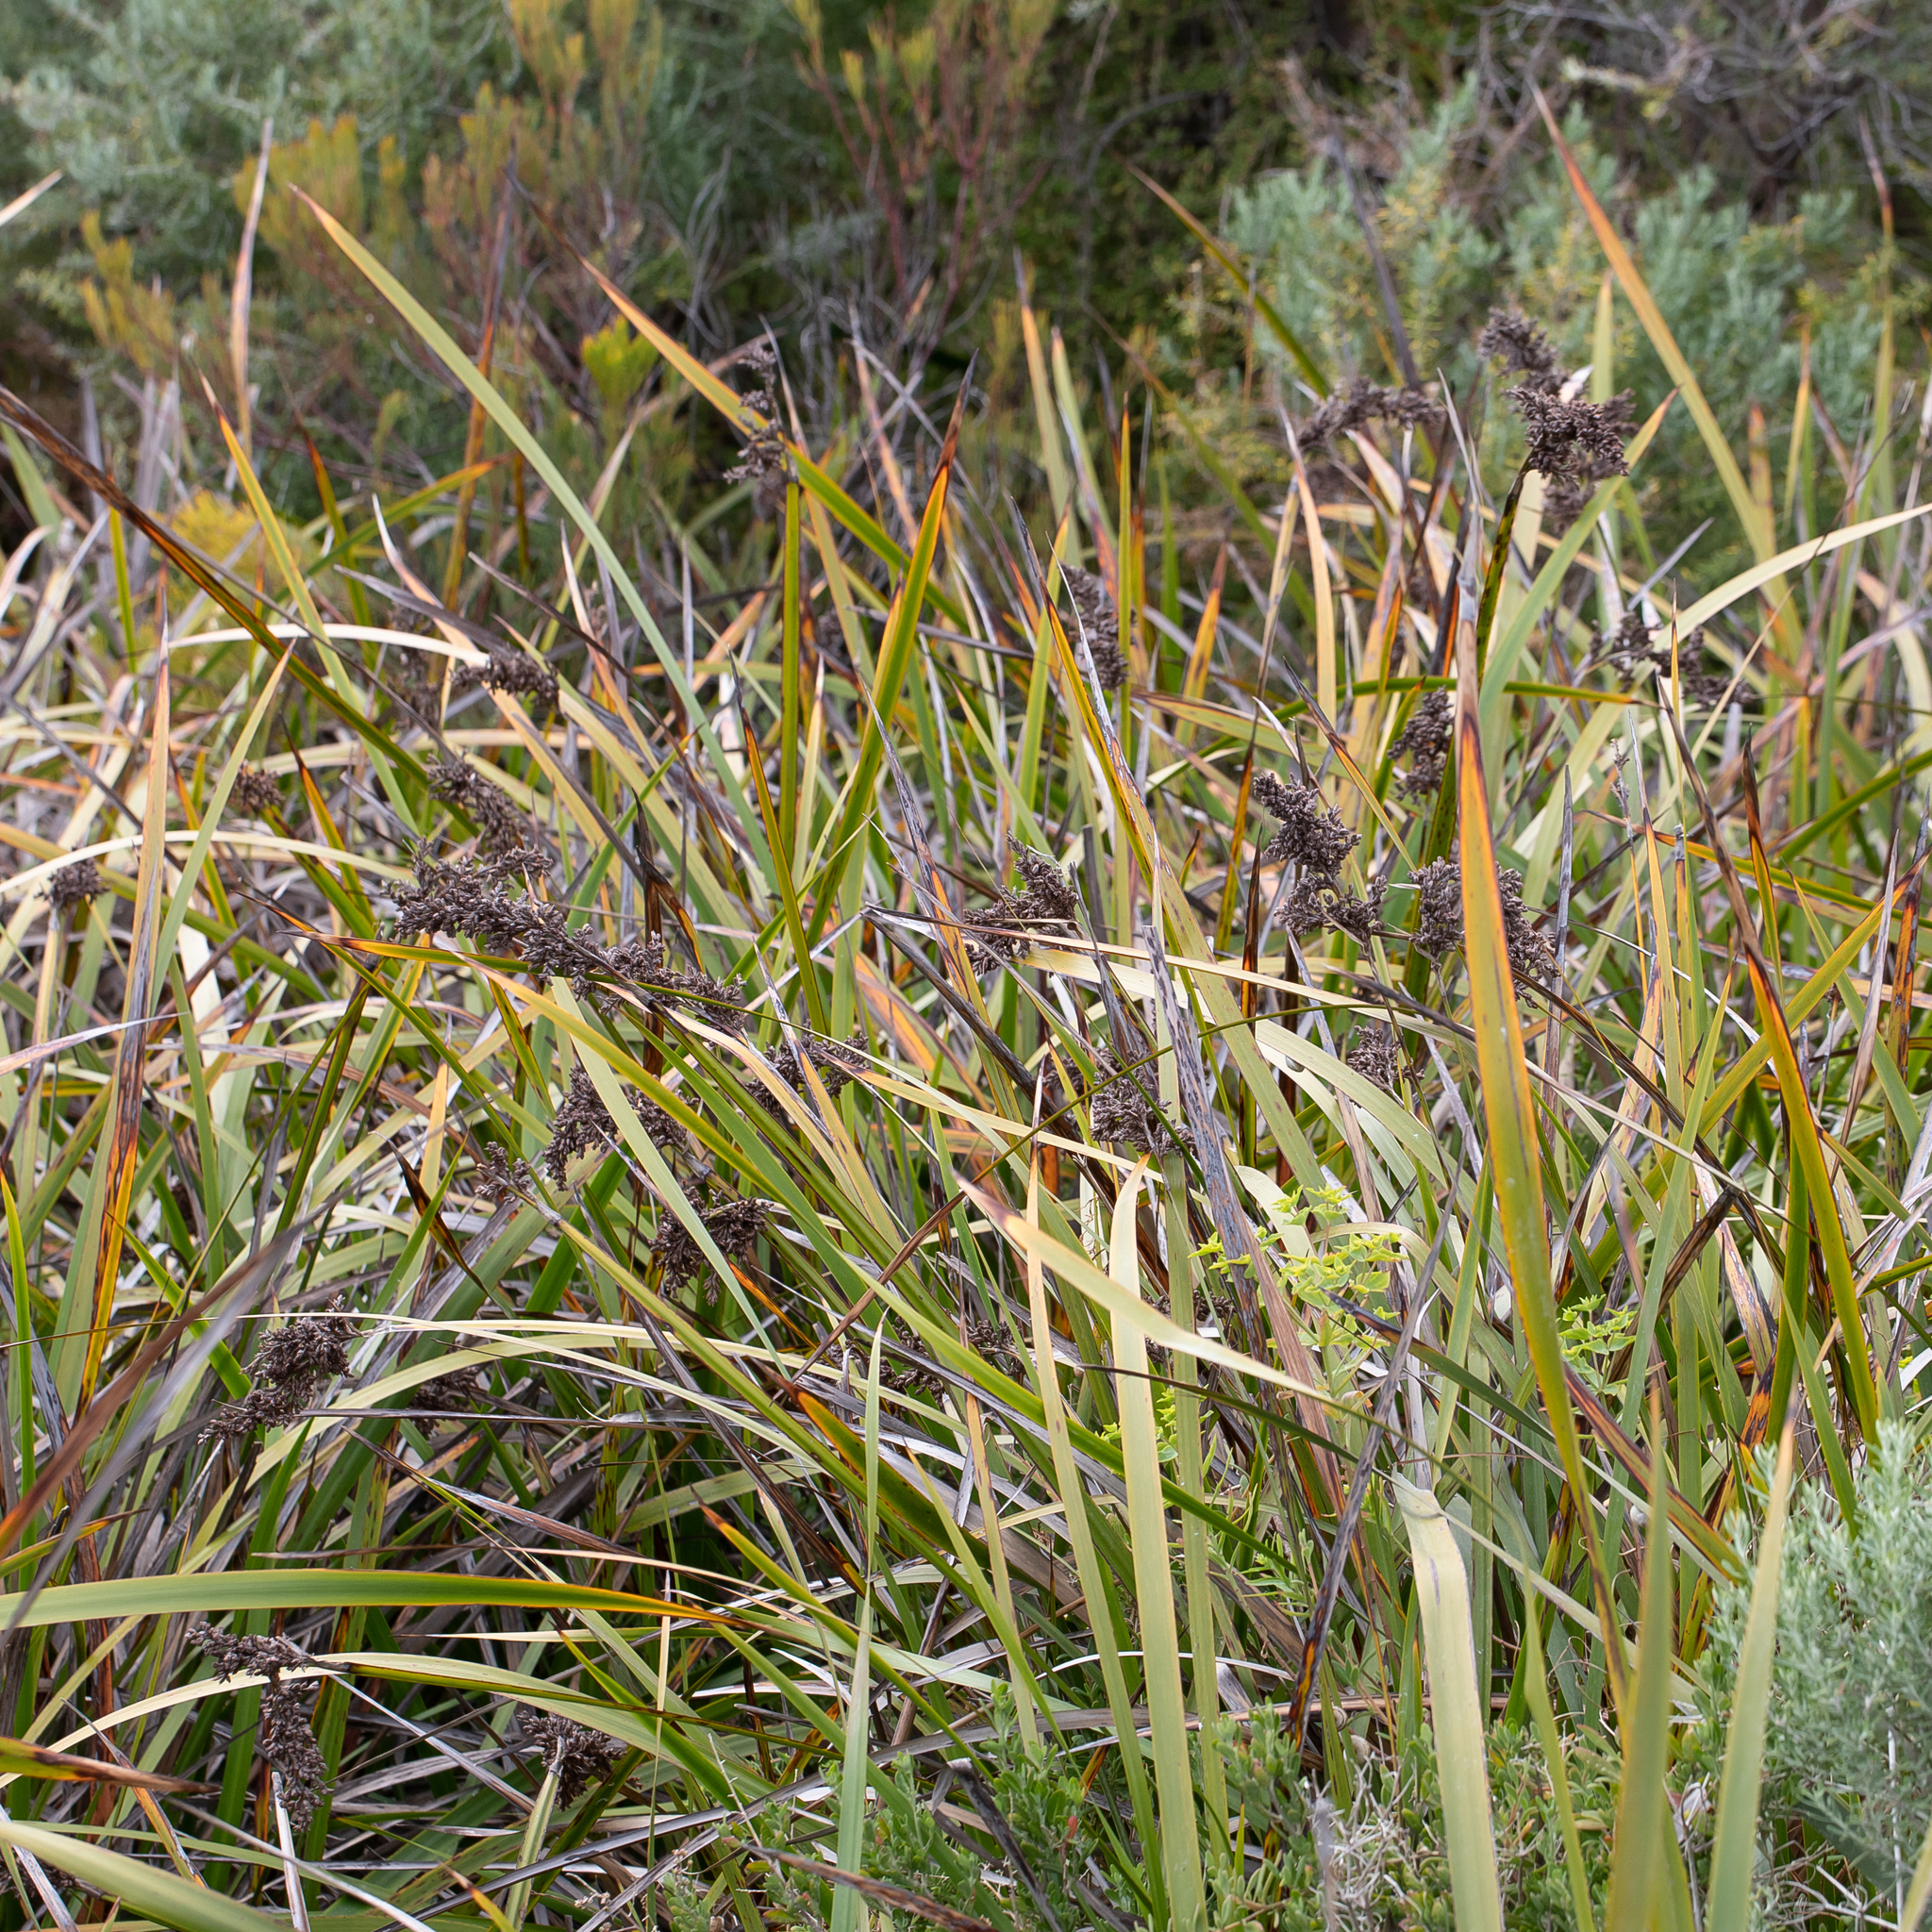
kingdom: Plantae
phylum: Tracheophyta
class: Liliopsida
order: Poales
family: Cyperaceae
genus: Lepidosperma
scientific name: Lepidosperma gladiatum
